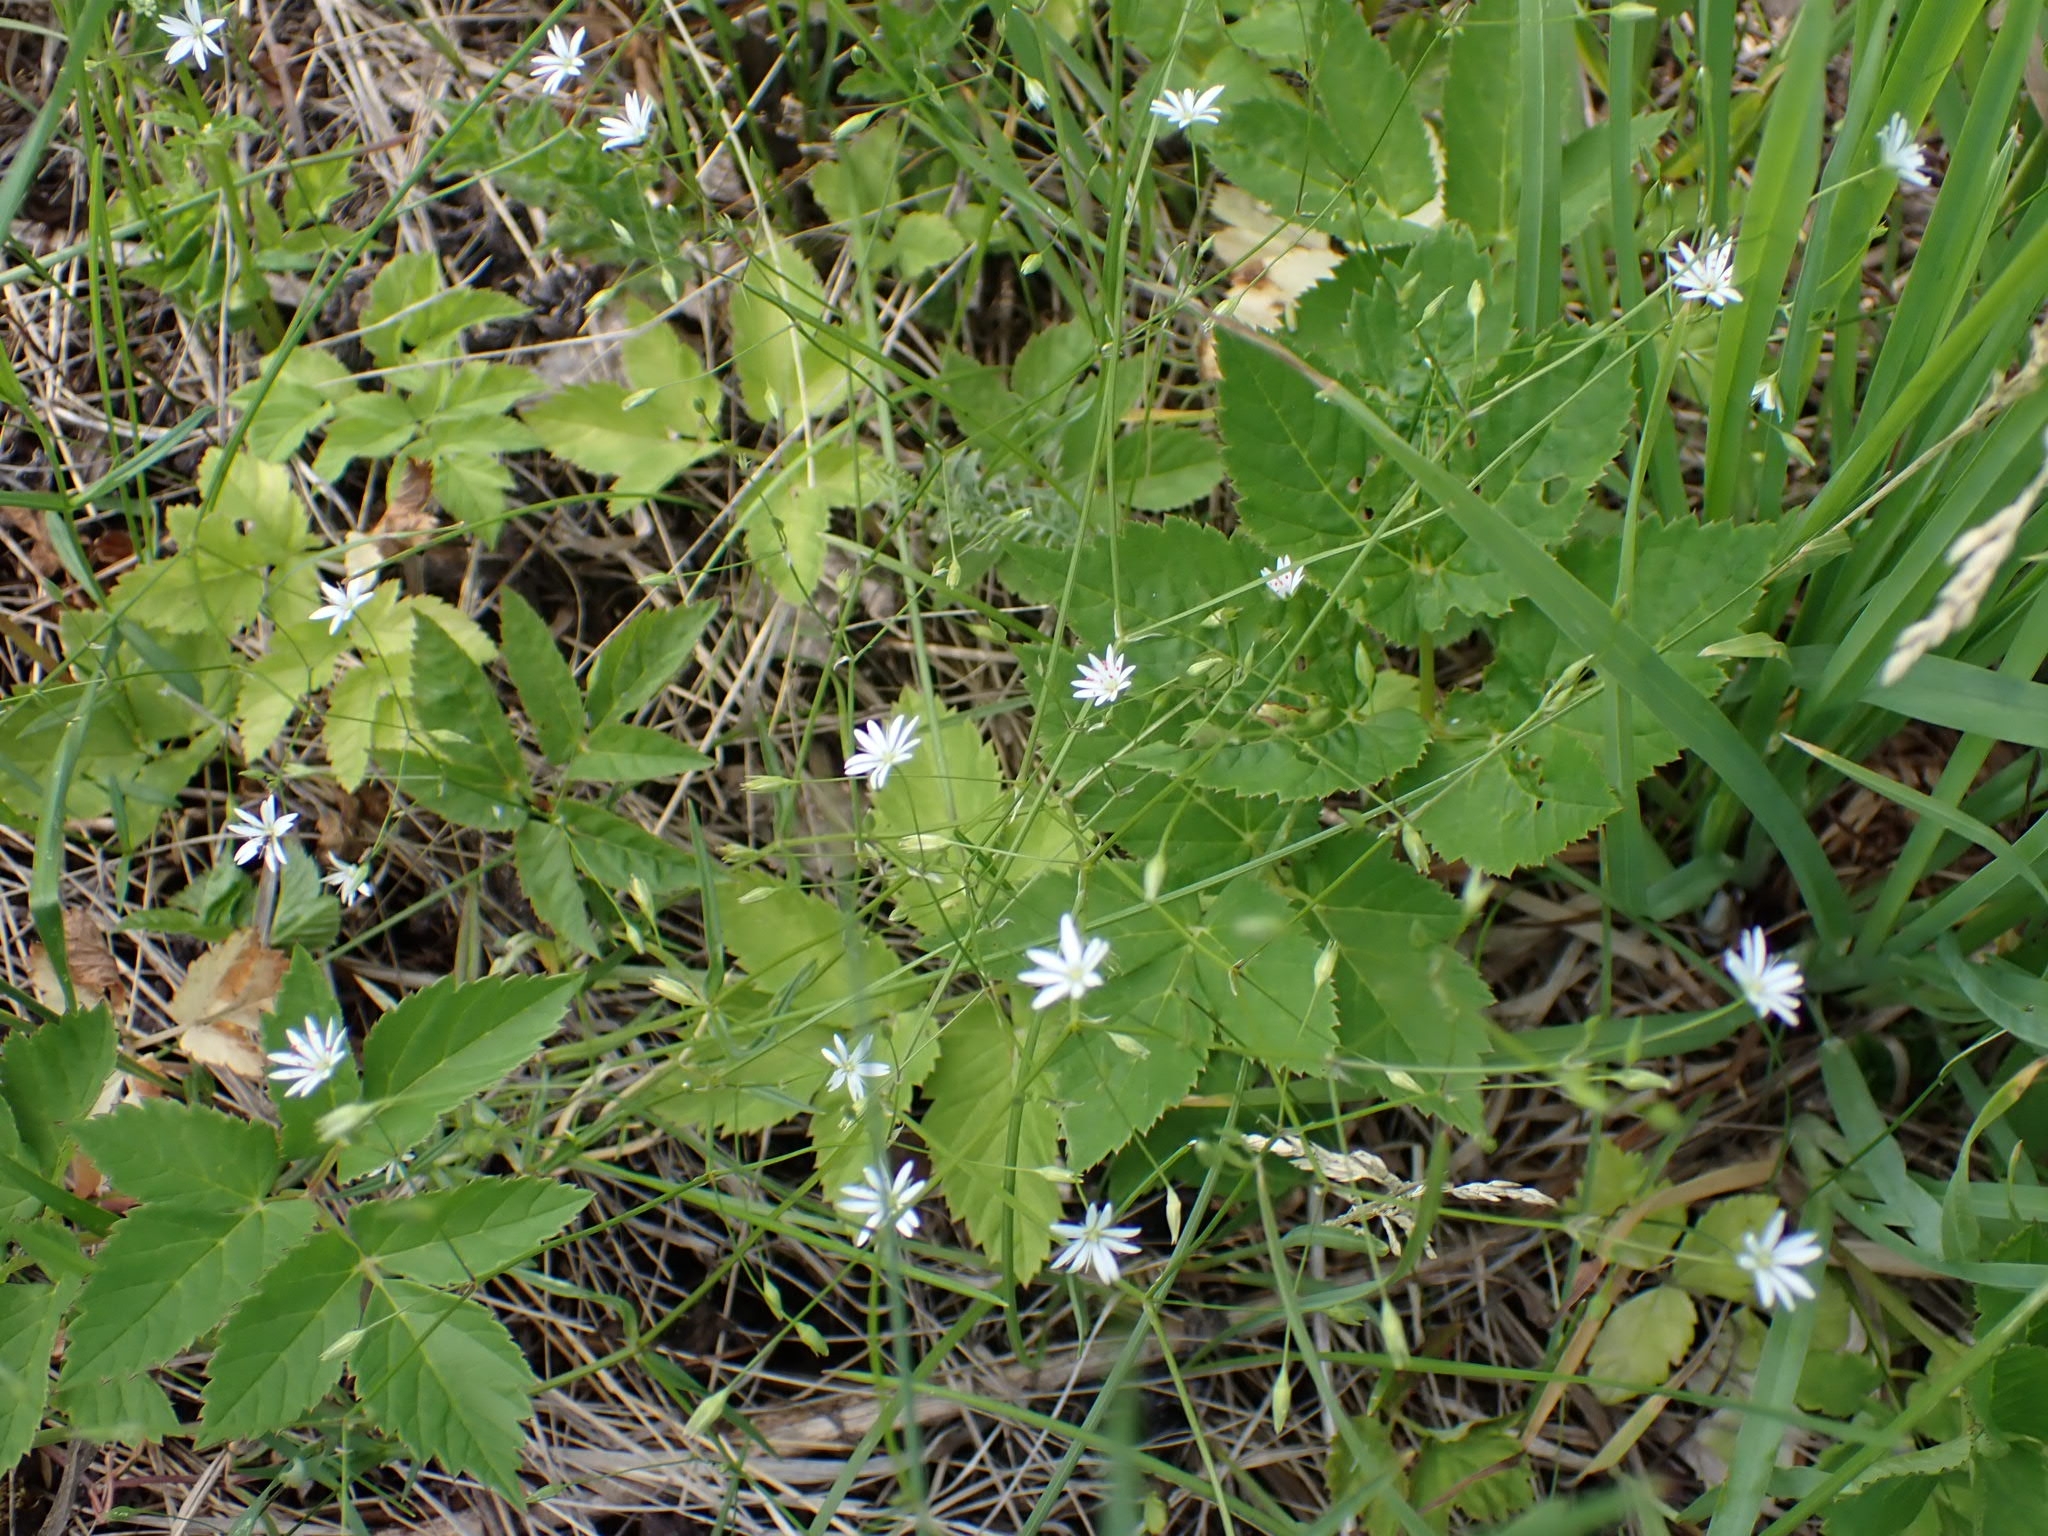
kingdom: Plantae
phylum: Tracheophyta
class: Magnoliopsida
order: Caryophyllales
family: Caryophyllaceae
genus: Stellaria
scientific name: Stellaria graminea
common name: Grass-like starwort
